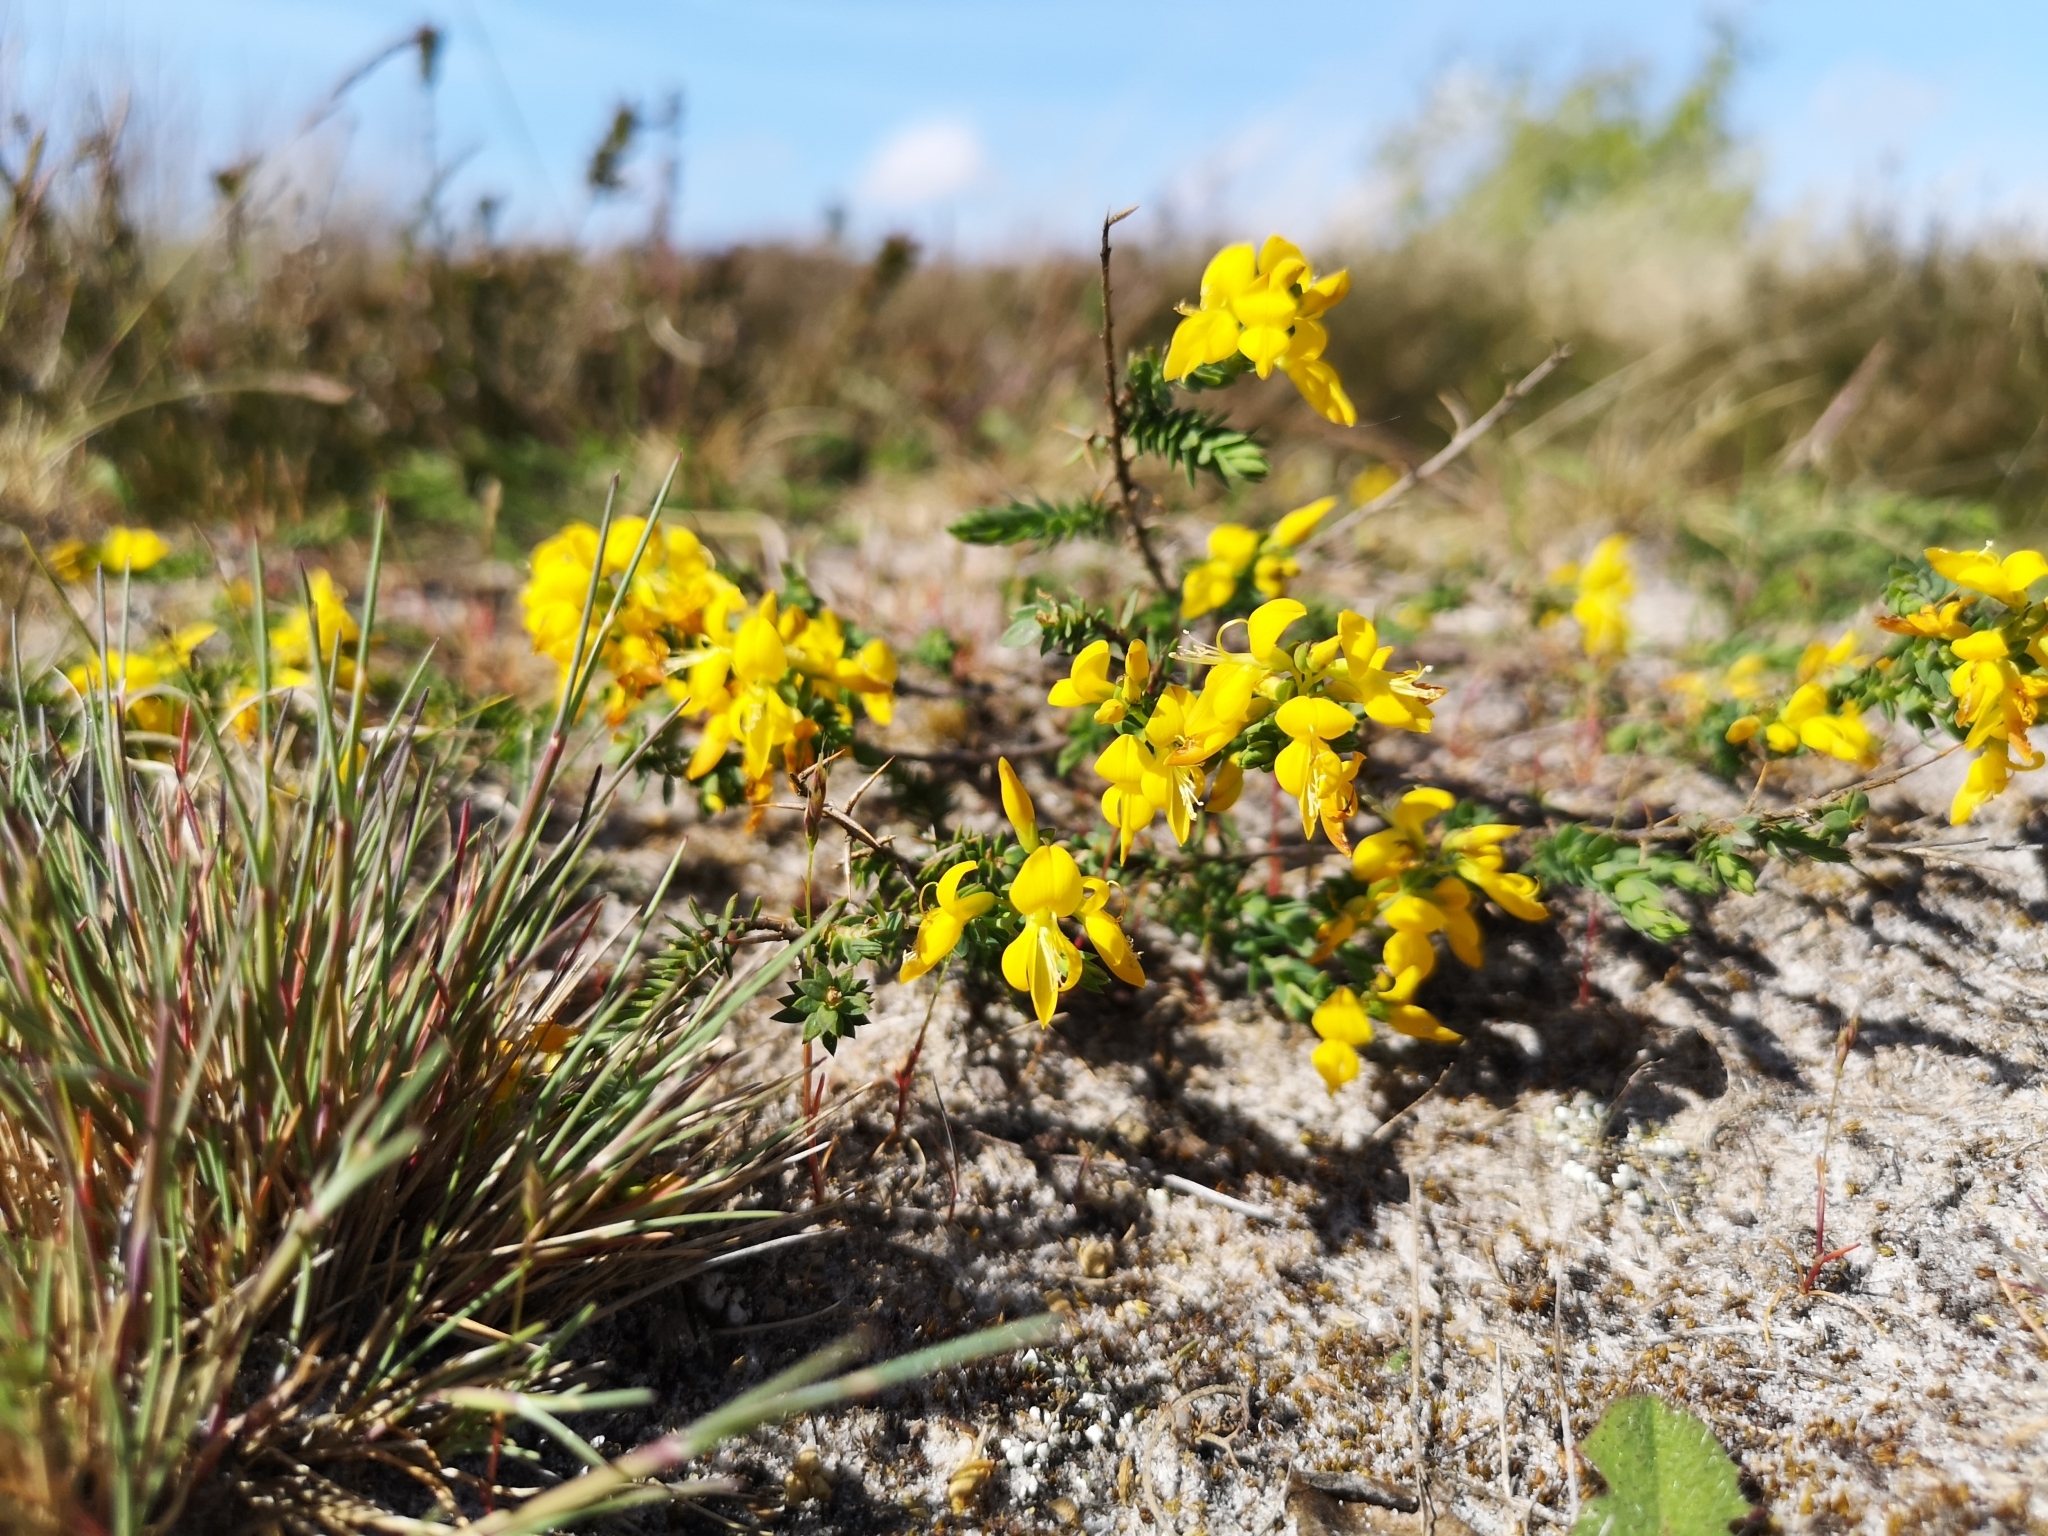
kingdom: Plantae
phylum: Tracheophyta
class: Magnoliopsida
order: Fabales
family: Fabaceae
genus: Genista
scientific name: Genista anglica
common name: Petty whin
